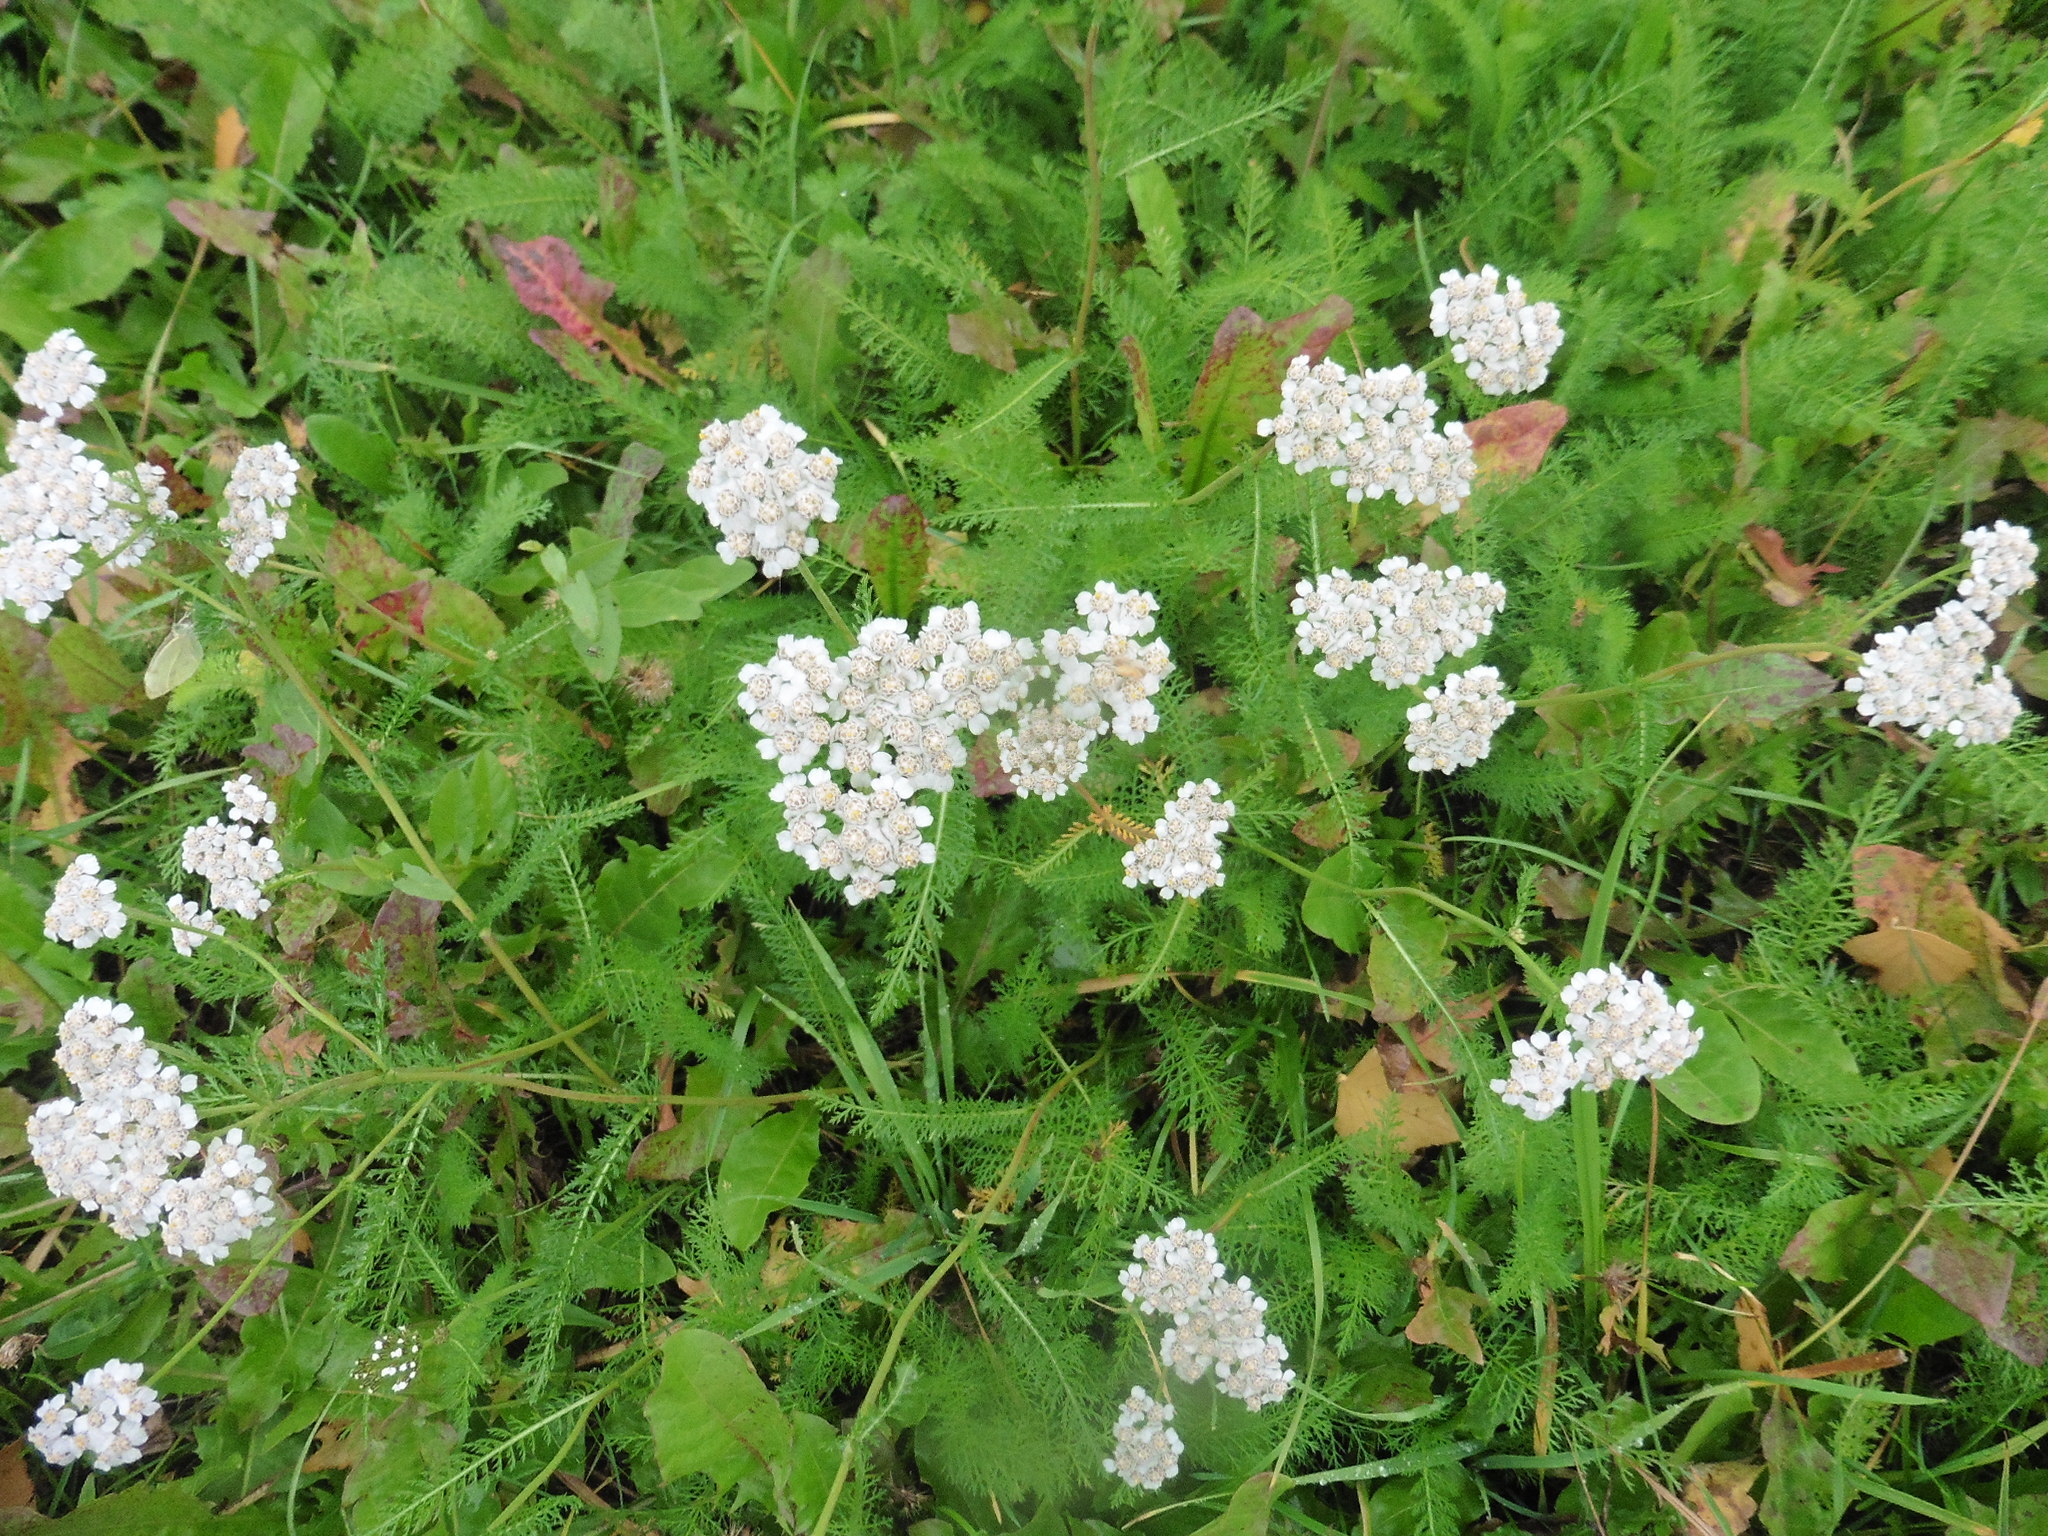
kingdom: Plantae
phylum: Tracheophyta
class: Magnoliopsida
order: Asterales
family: Asteraceae
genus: Achillea
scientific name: Achillea millefolium
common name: Yarrow
